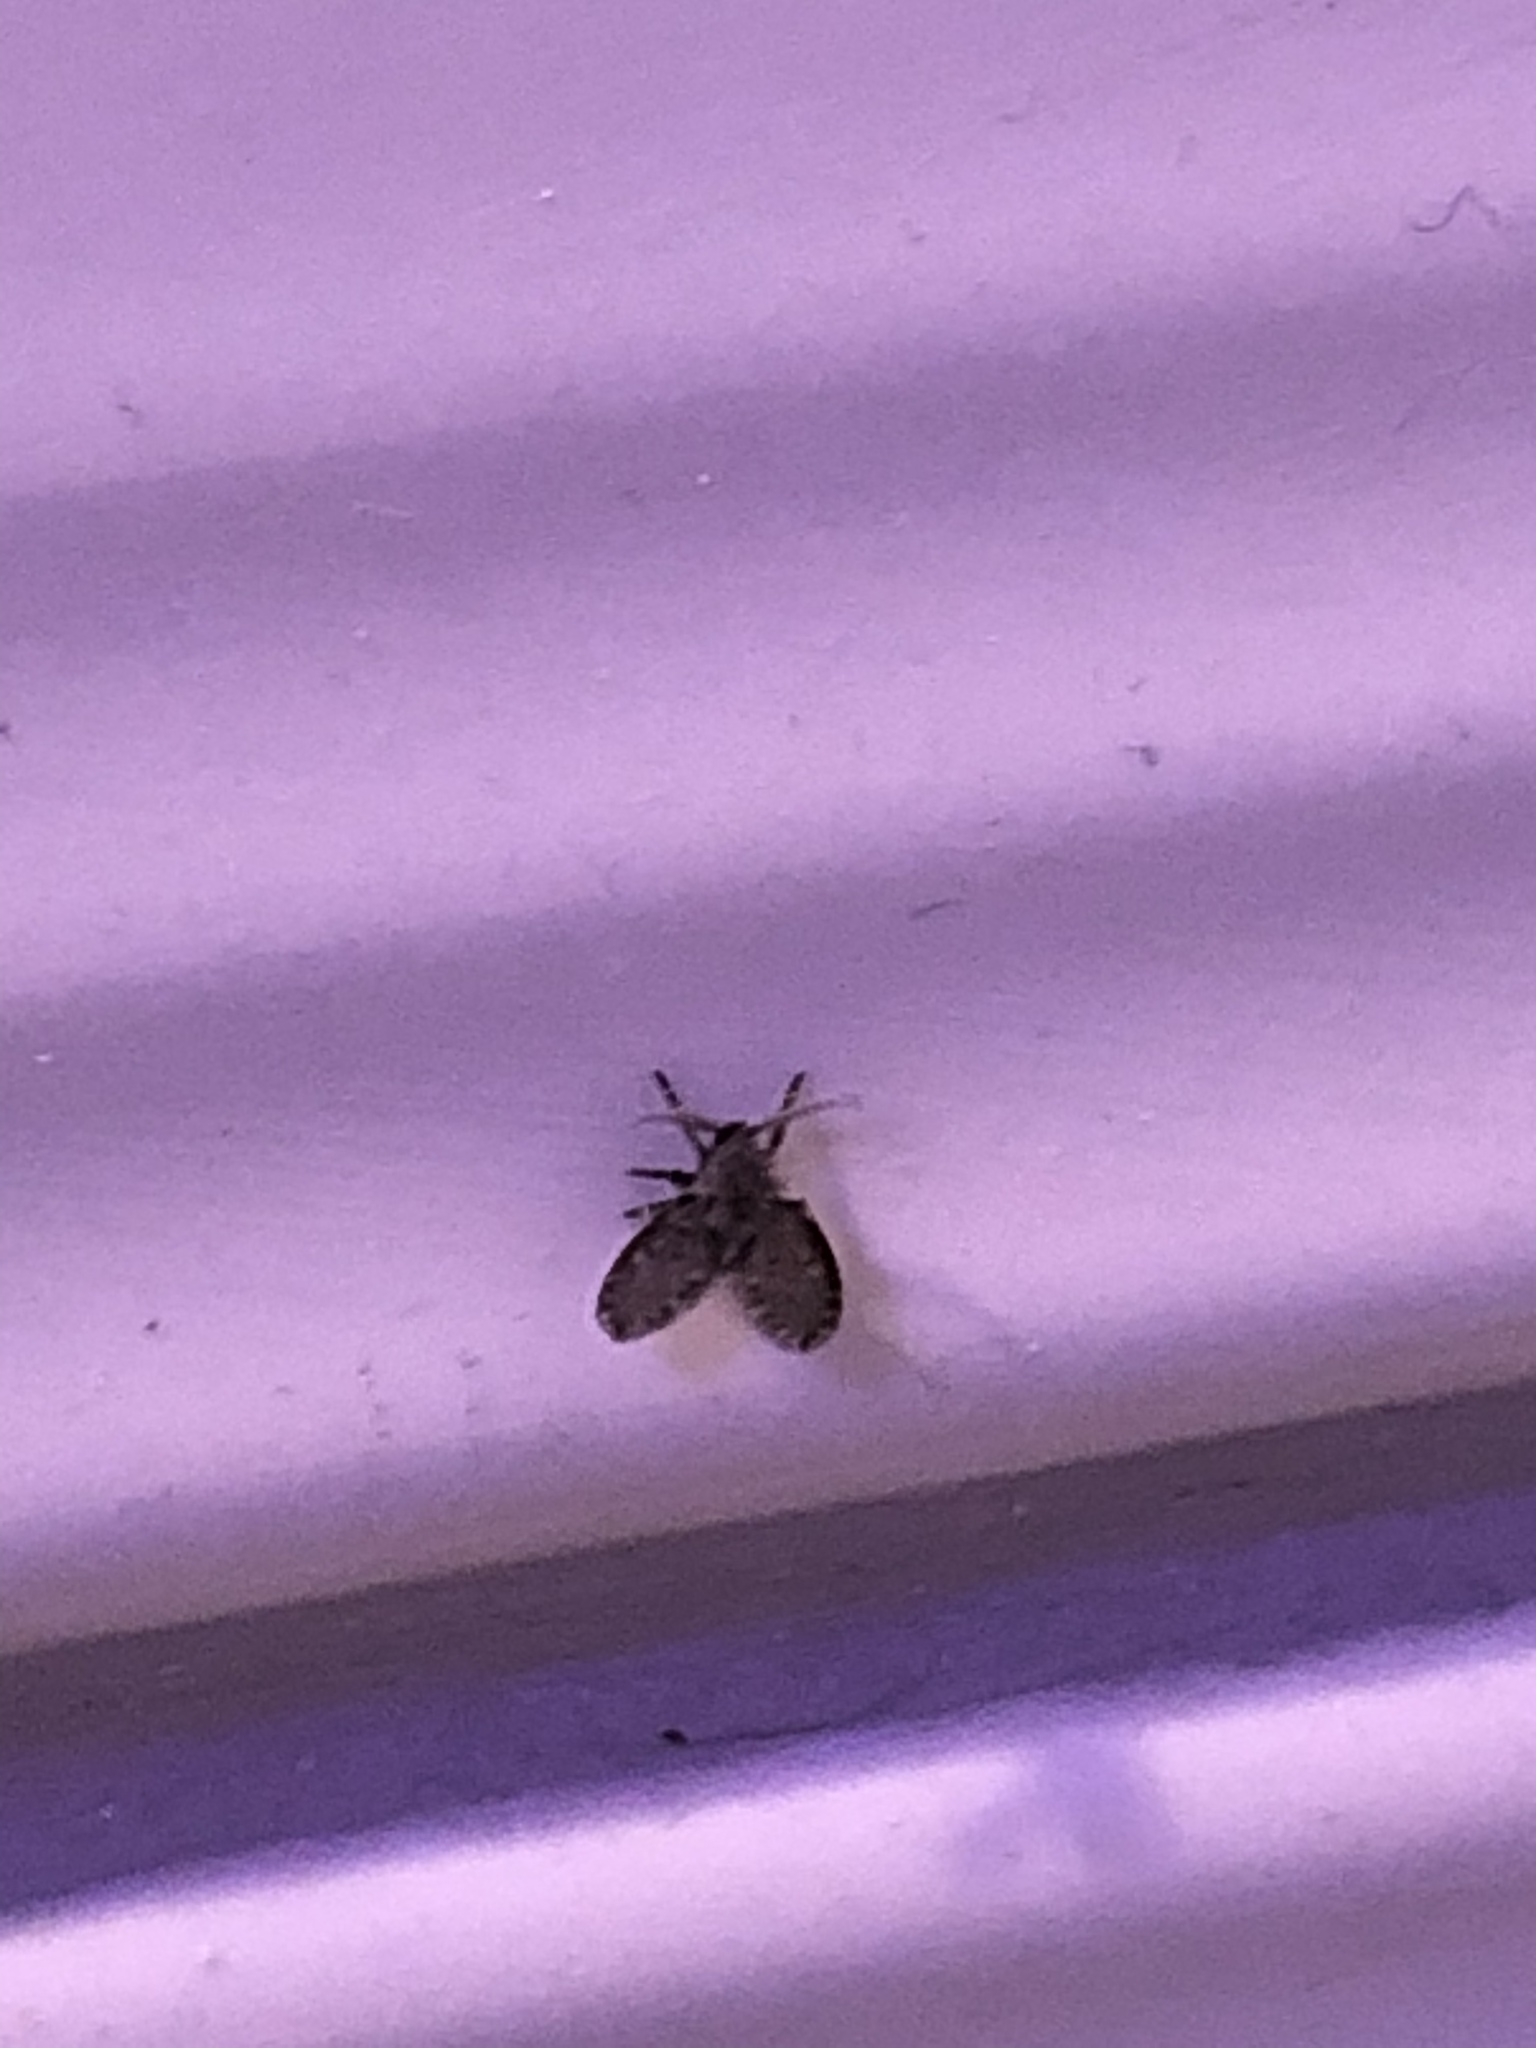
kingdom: Animalia
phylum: Arthropoda
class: Insecta
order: Diptera
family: Psychodidae
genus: Clogmia
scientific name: Clogmia albipunctatus
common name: White-spotted moth fly
